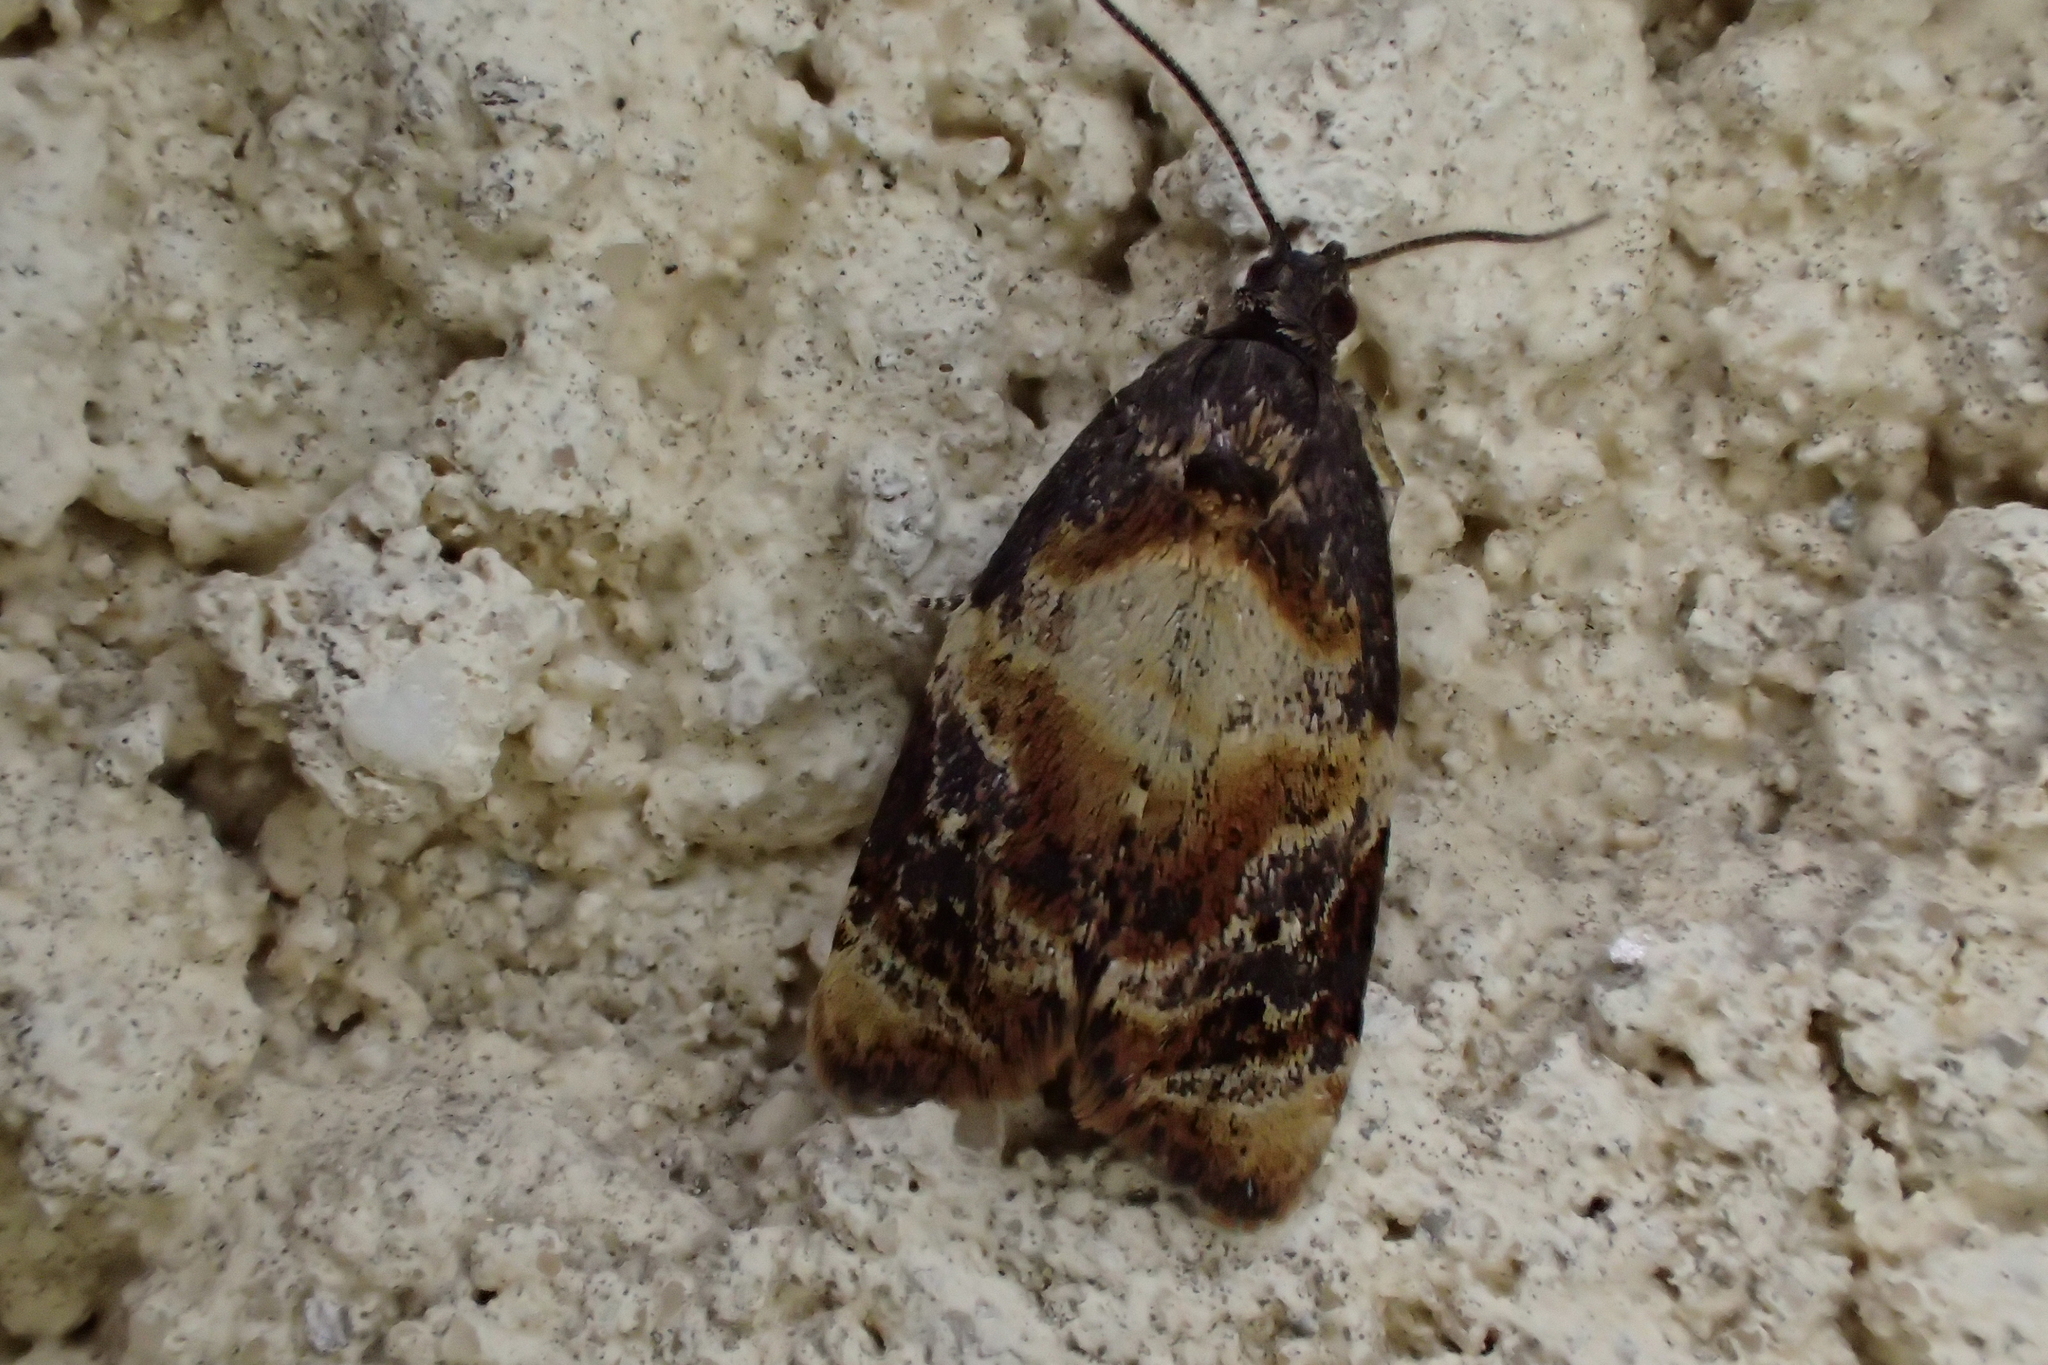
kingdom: Animalia
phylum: Arthropoda
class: Insecta
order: Lepidoptera
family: Tortricidae
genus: Ditula
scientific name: Ditula angustiorana
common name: Red-barred tortrix
